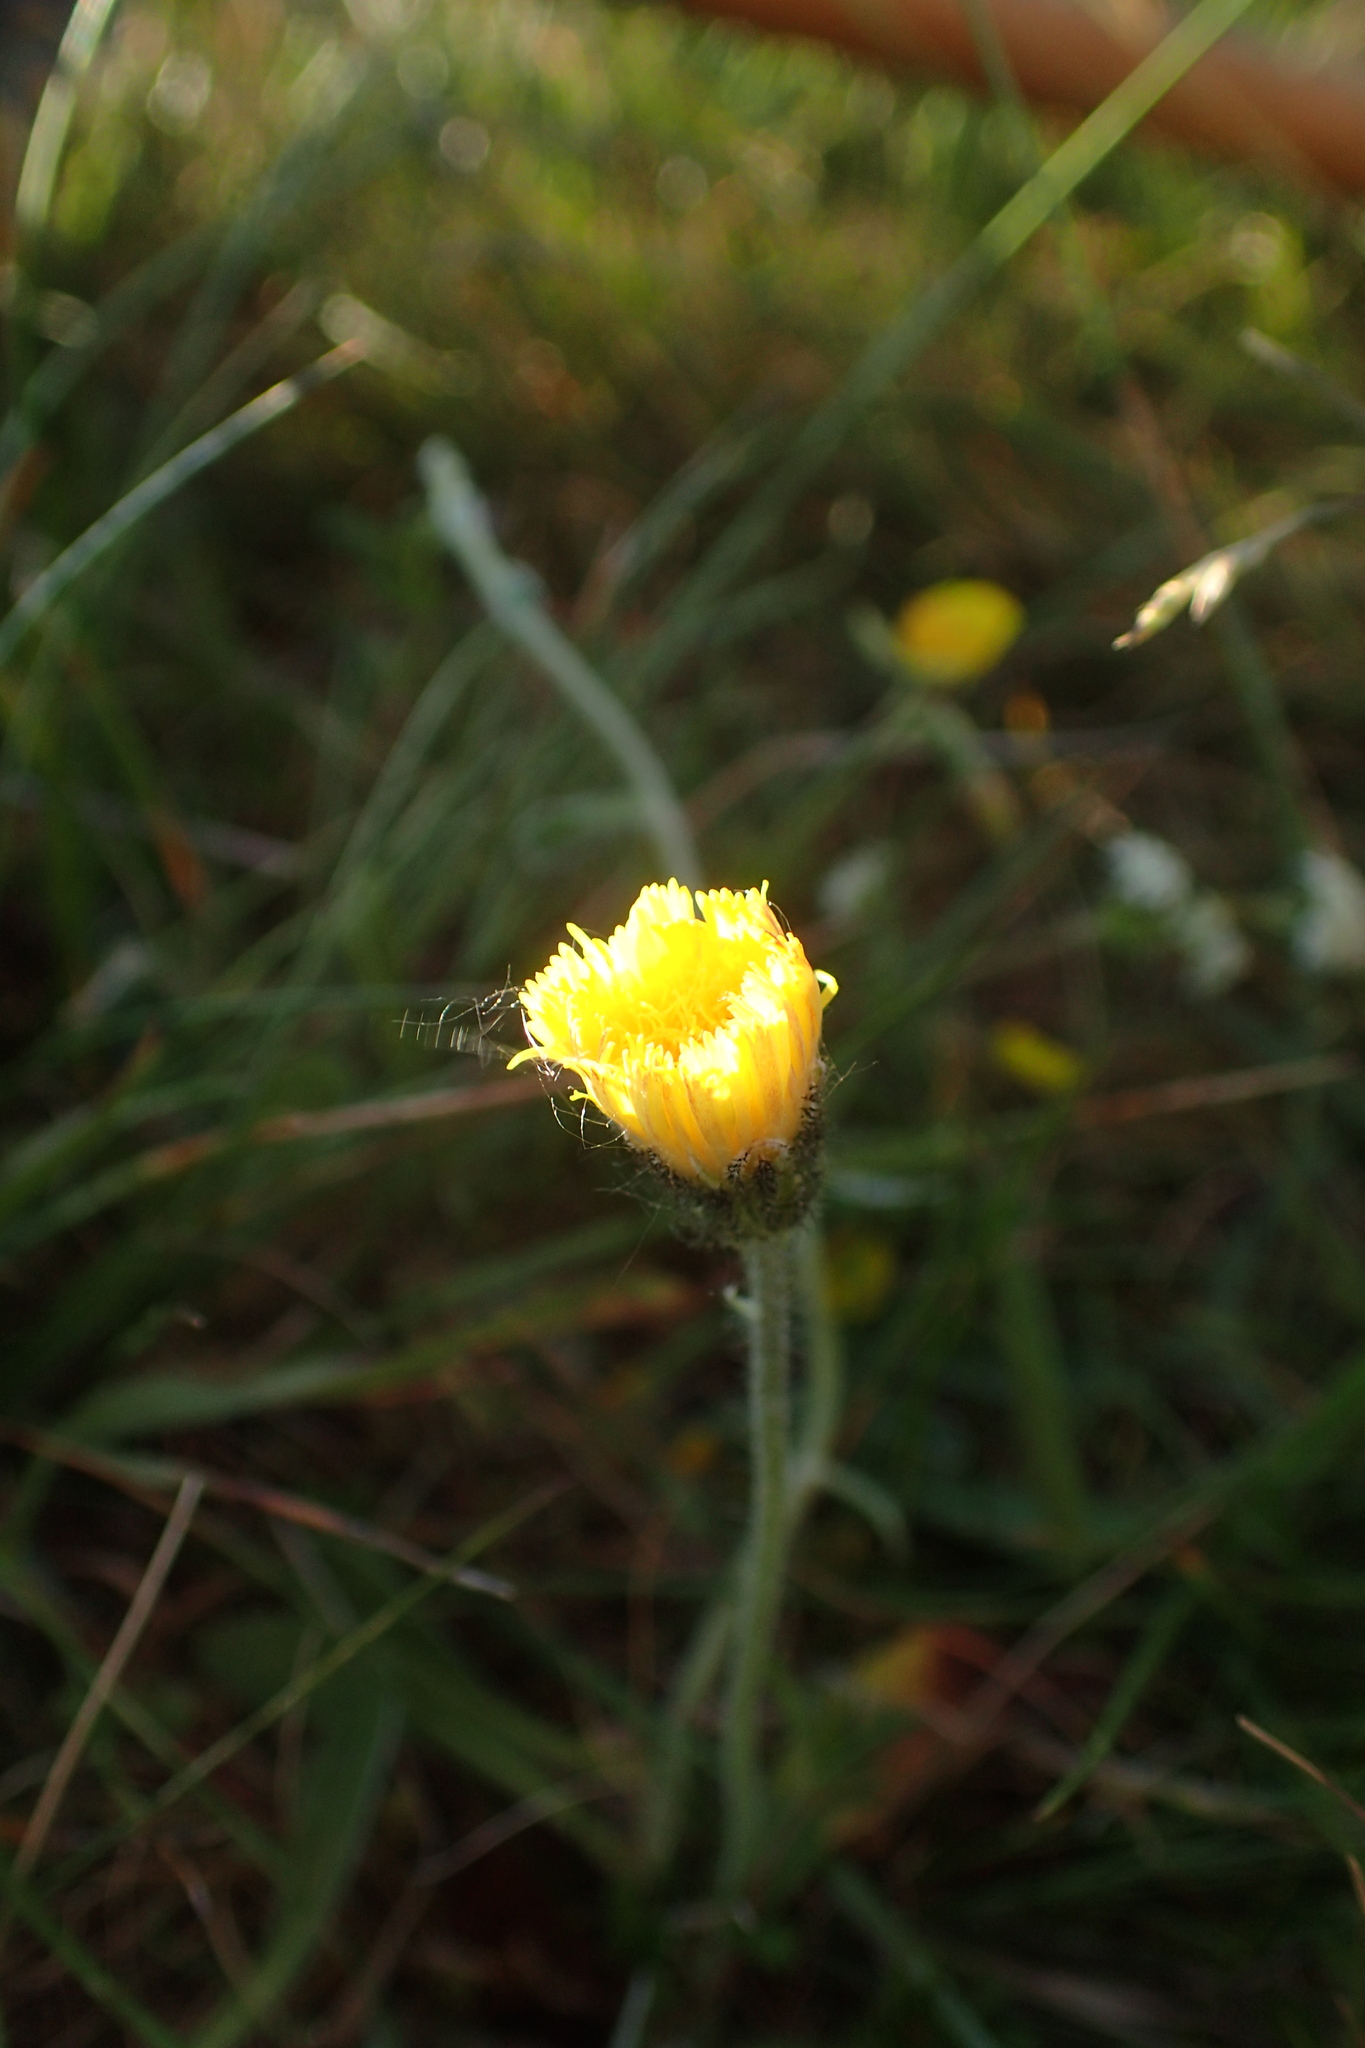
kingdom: Plantae
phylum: Tracheophyta
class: Magnoliopsida
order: Asterales
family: Asteraceae
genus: Pilosella
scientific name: Pilosella officinarum
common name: Mouse-ear hawkweed
